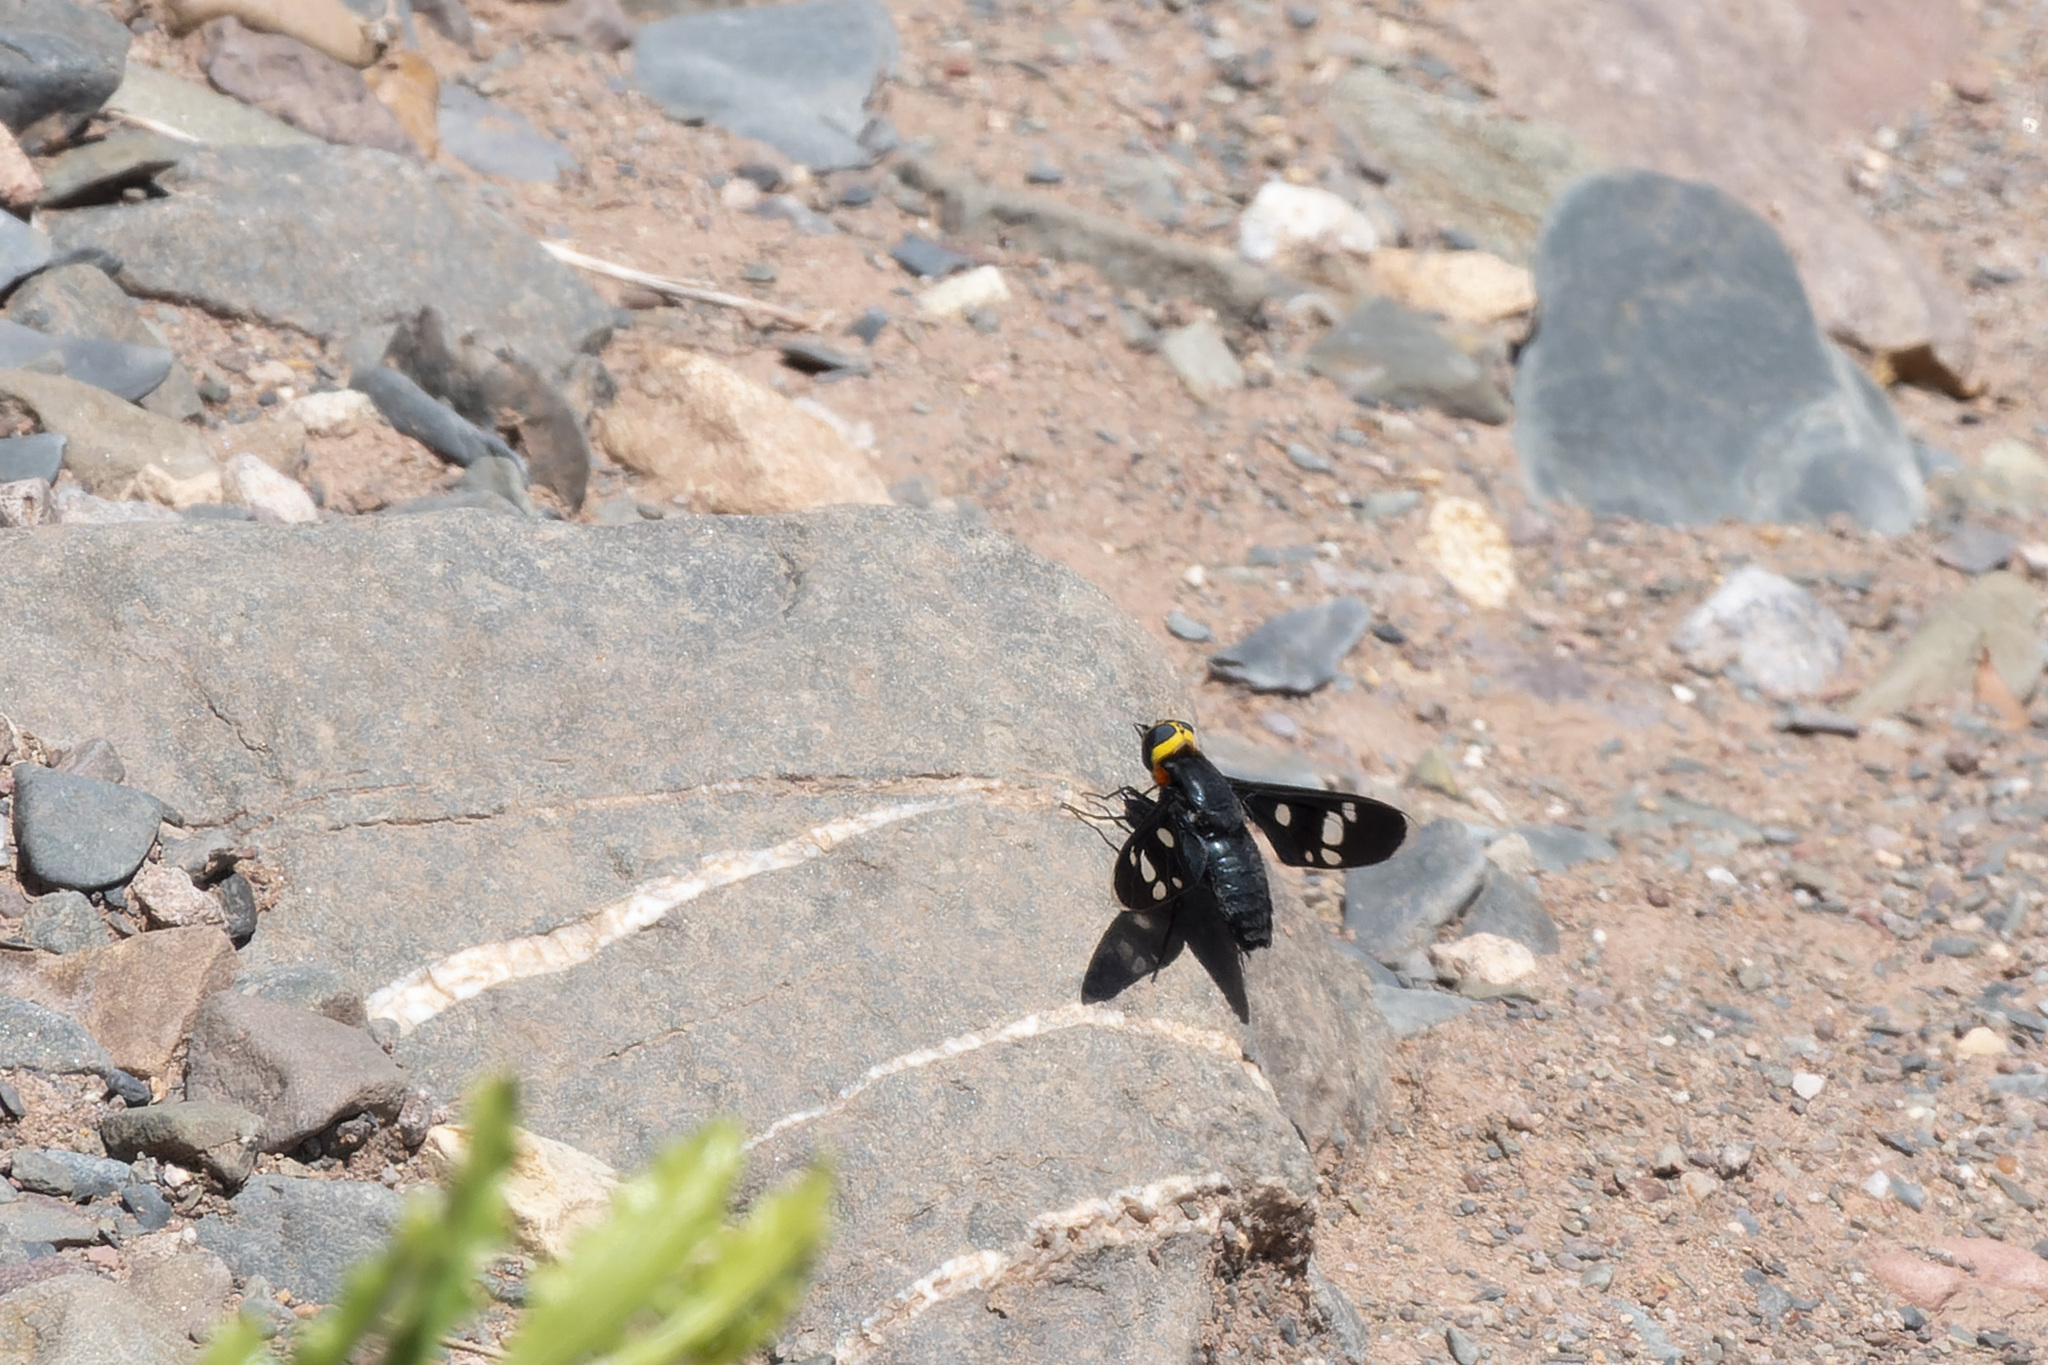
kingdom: Animalia
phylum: Arthropoda
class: Insecta
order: Diptera
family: Bombyliidae
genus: Hyperalonia
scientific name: Hyperalonia morio
